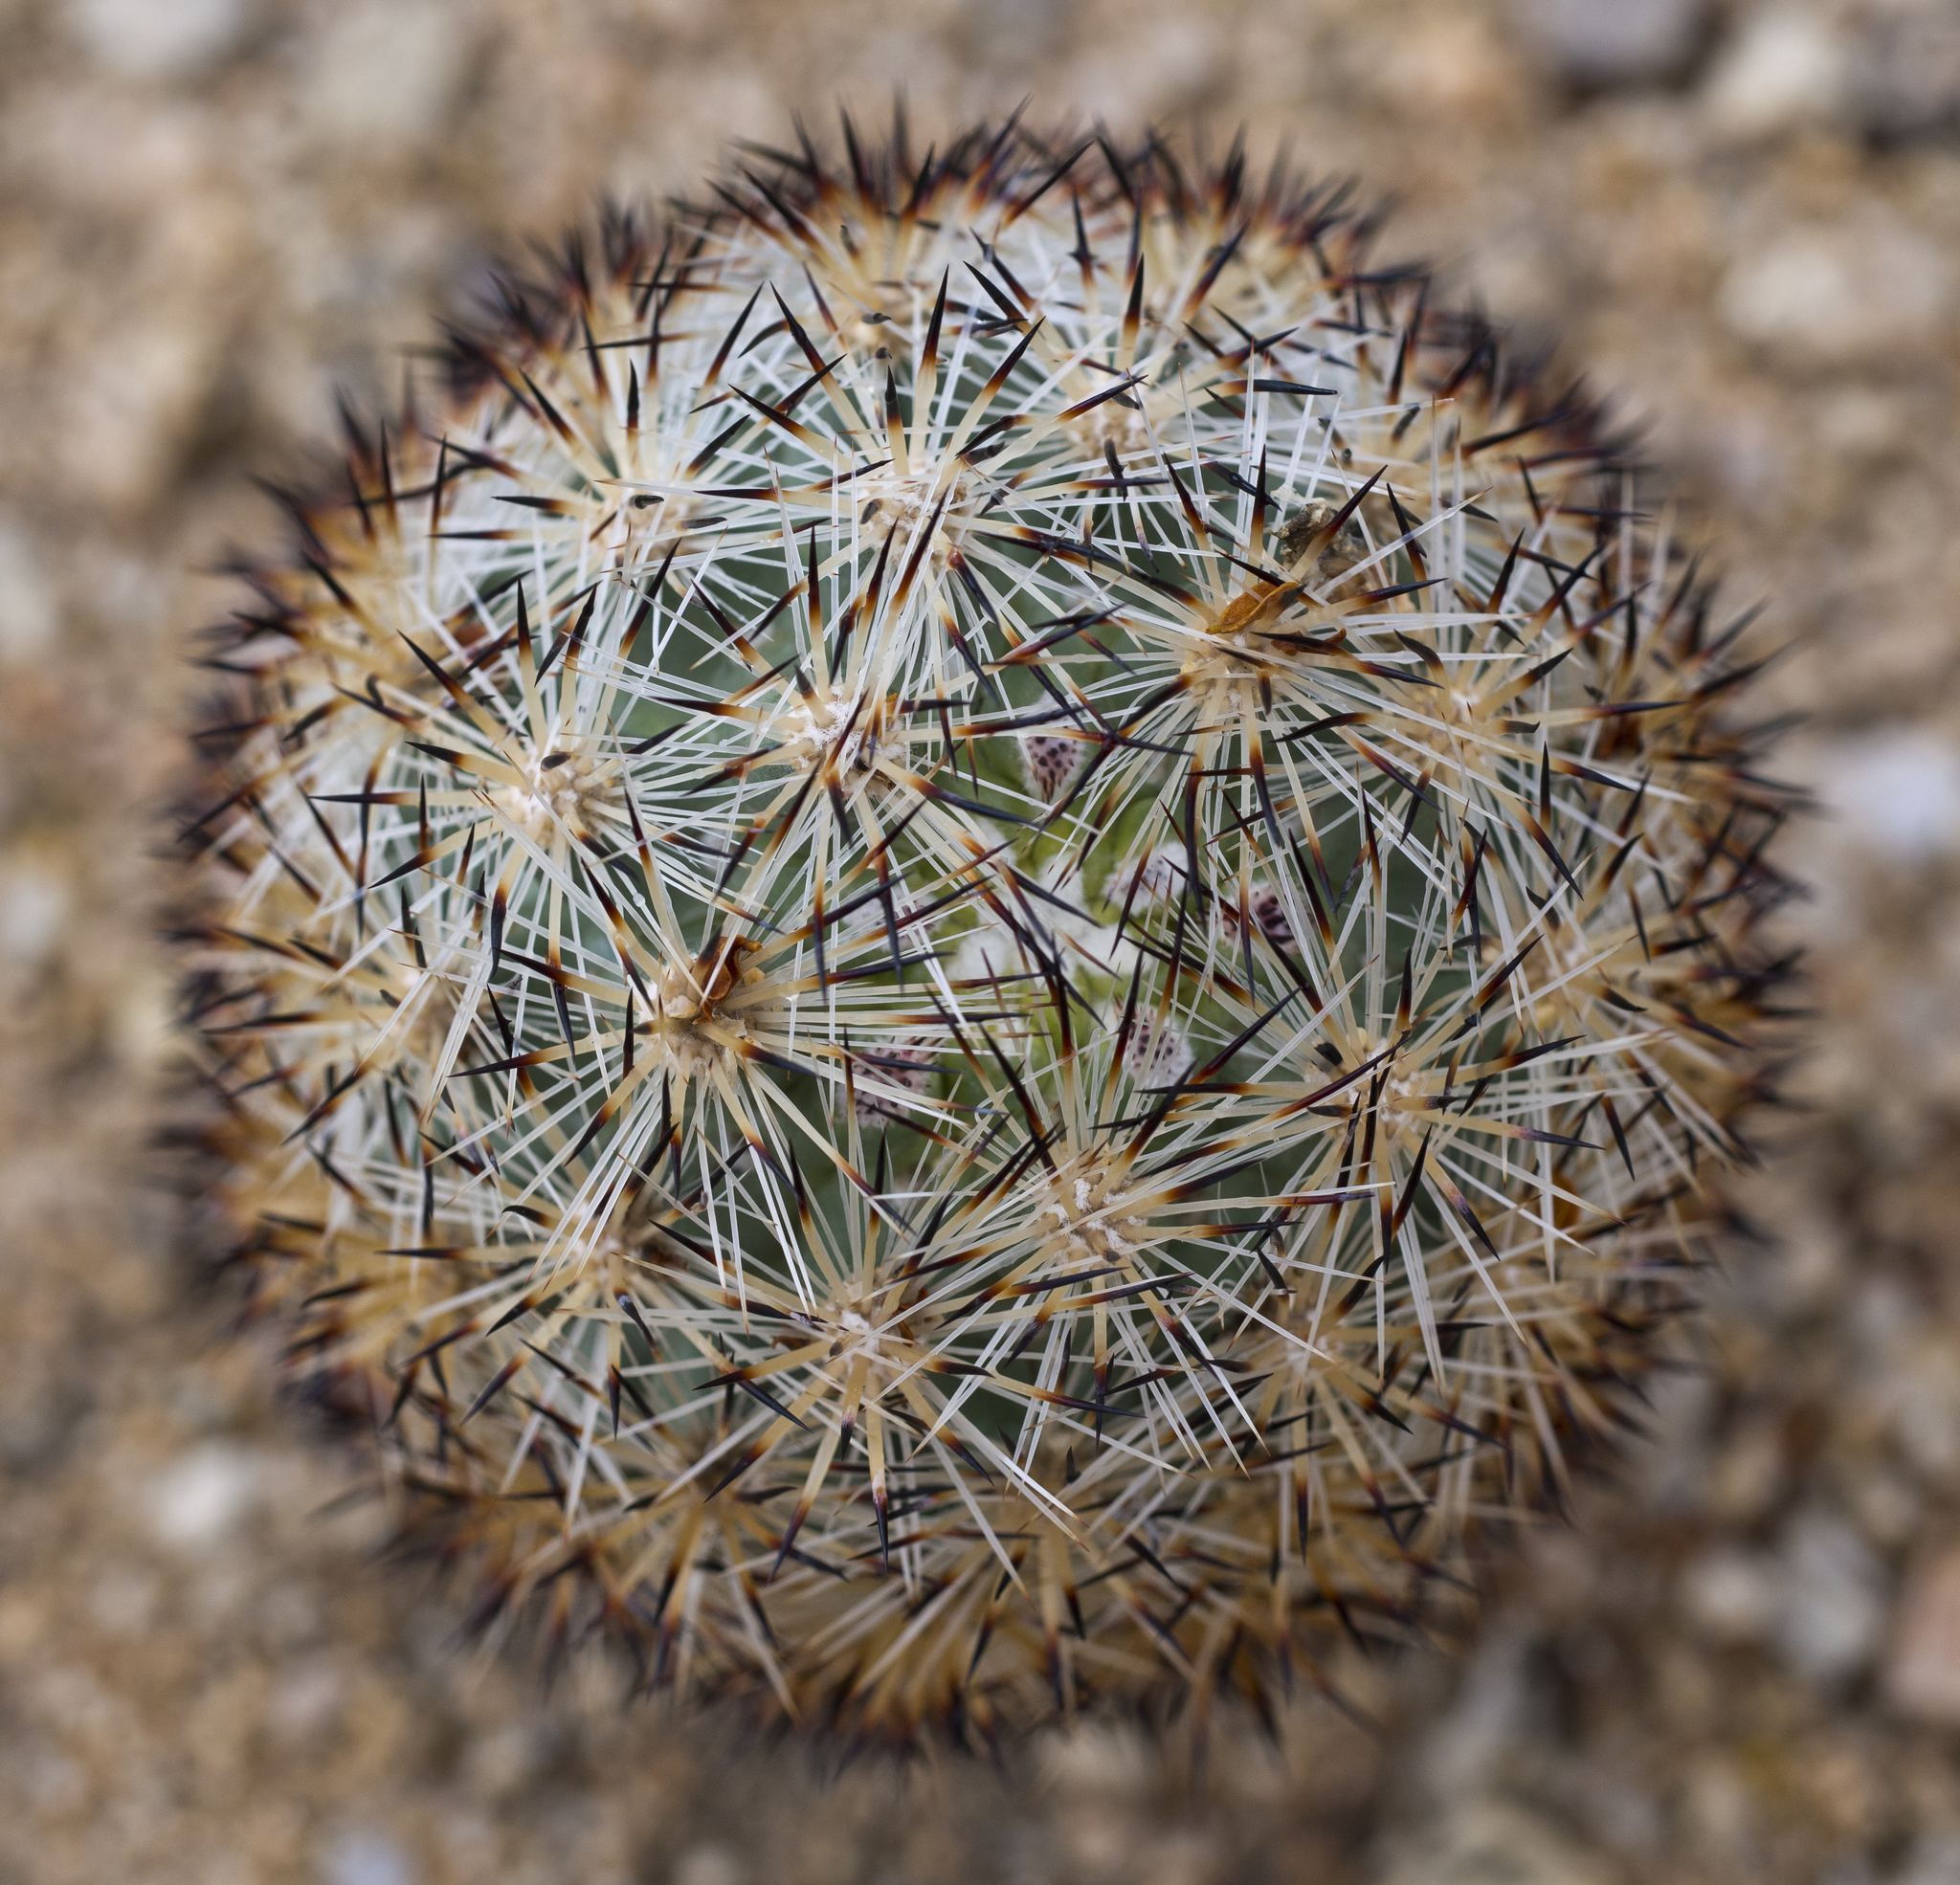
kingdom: Plantae
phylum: Tracheophyta
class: Magnoliopsida
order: Caryophyllales
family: Cactaceae
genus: Pelecyphora
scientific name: Pelecyphora alversonii
